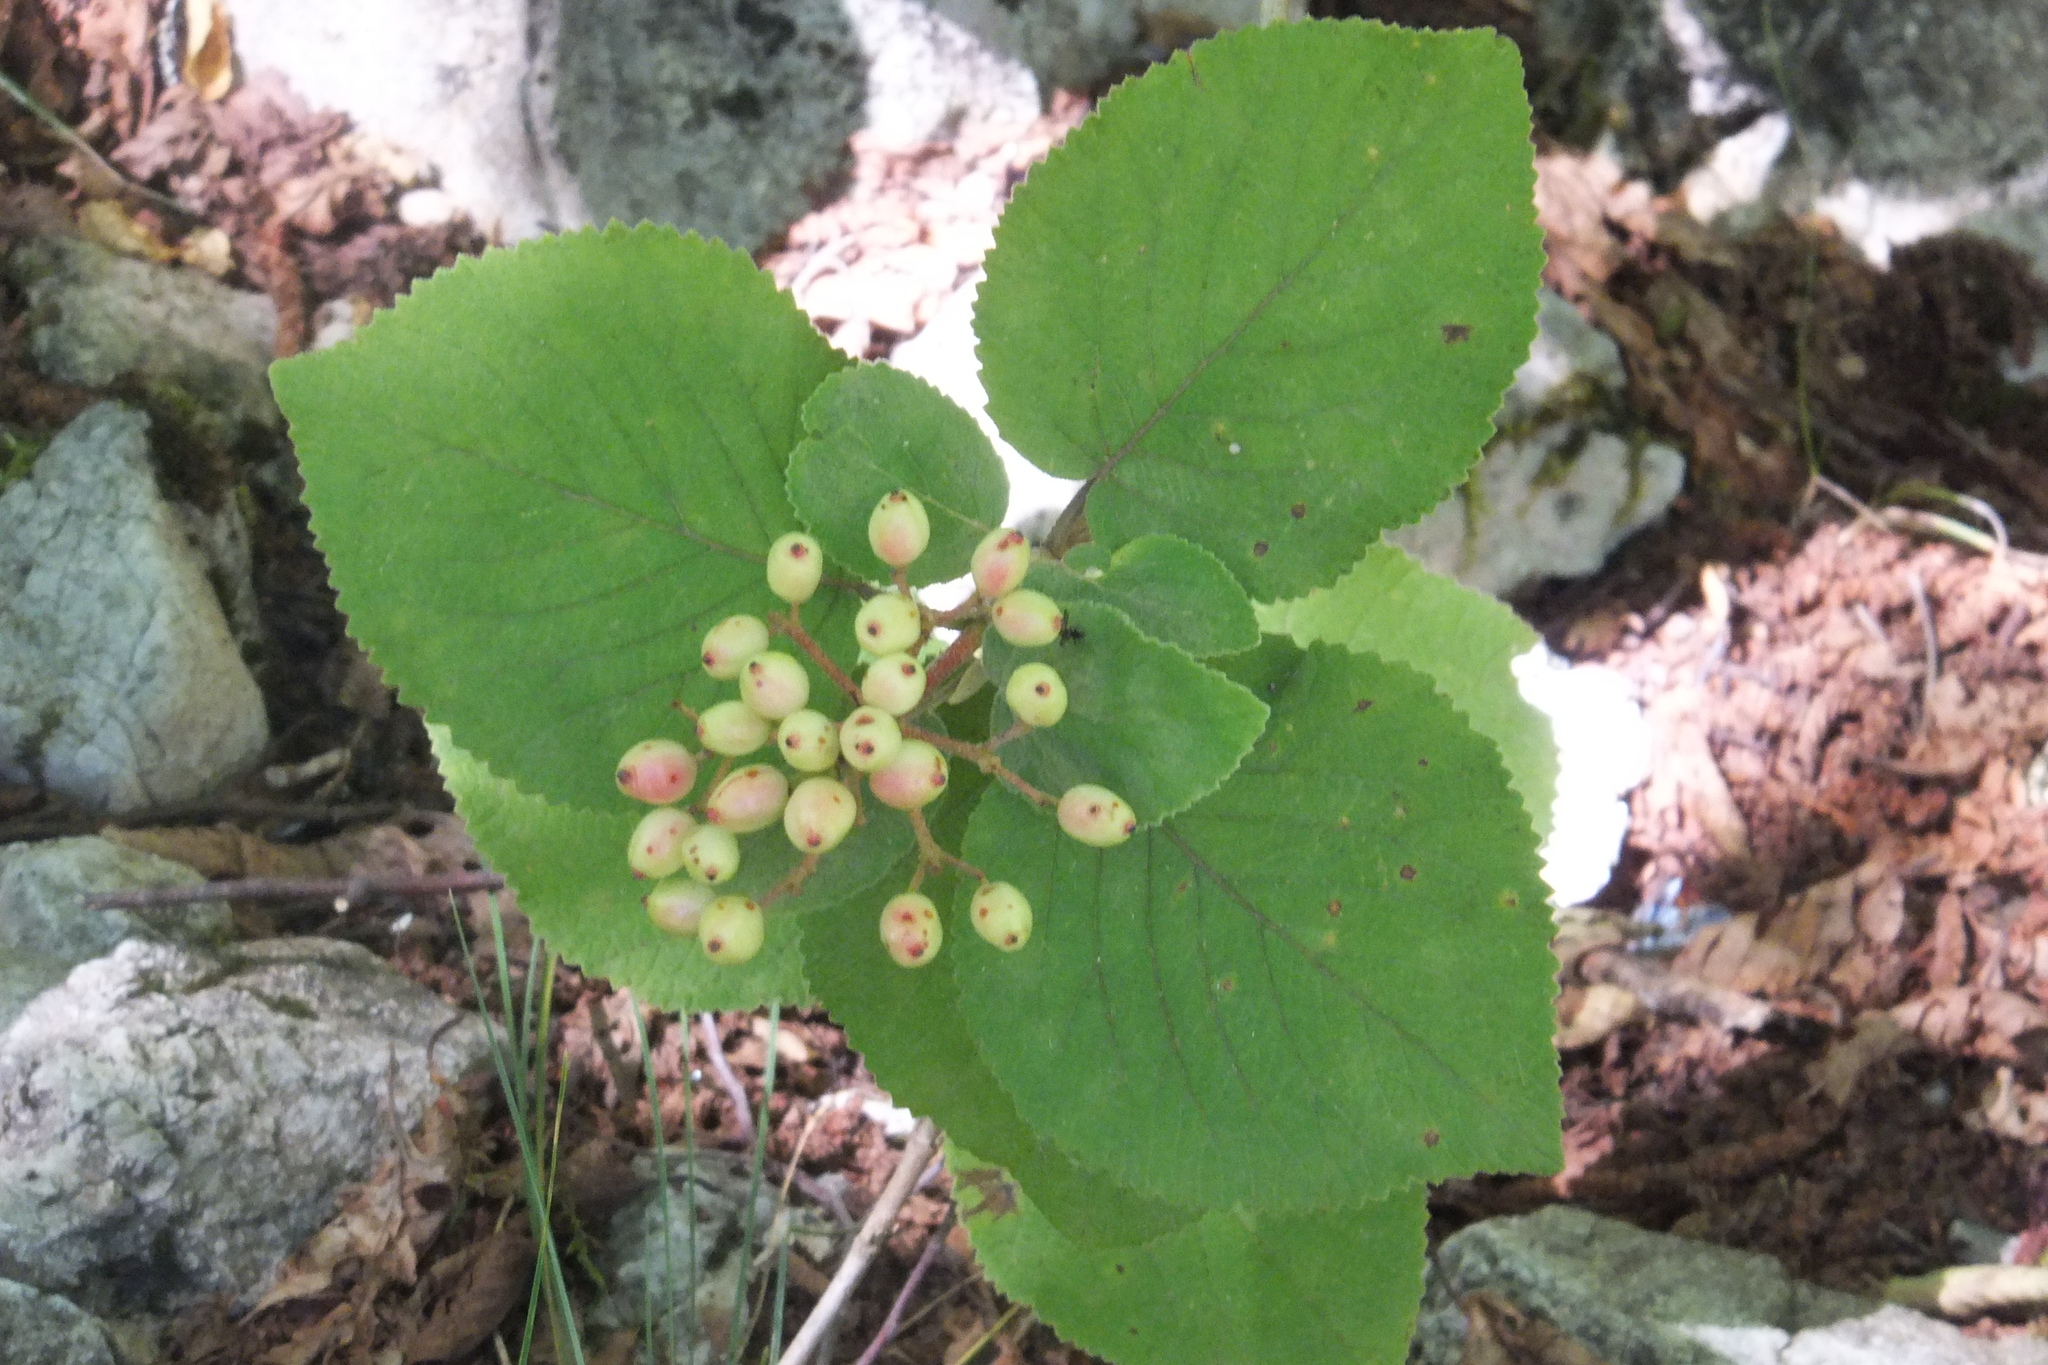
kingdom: Plantae
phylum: Tracheophyta
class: Magnoliopsida
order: Dipsacales
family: Viburnaceae
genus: Viburnum
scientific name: Viburnum lantana
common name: Wayfaring tree
